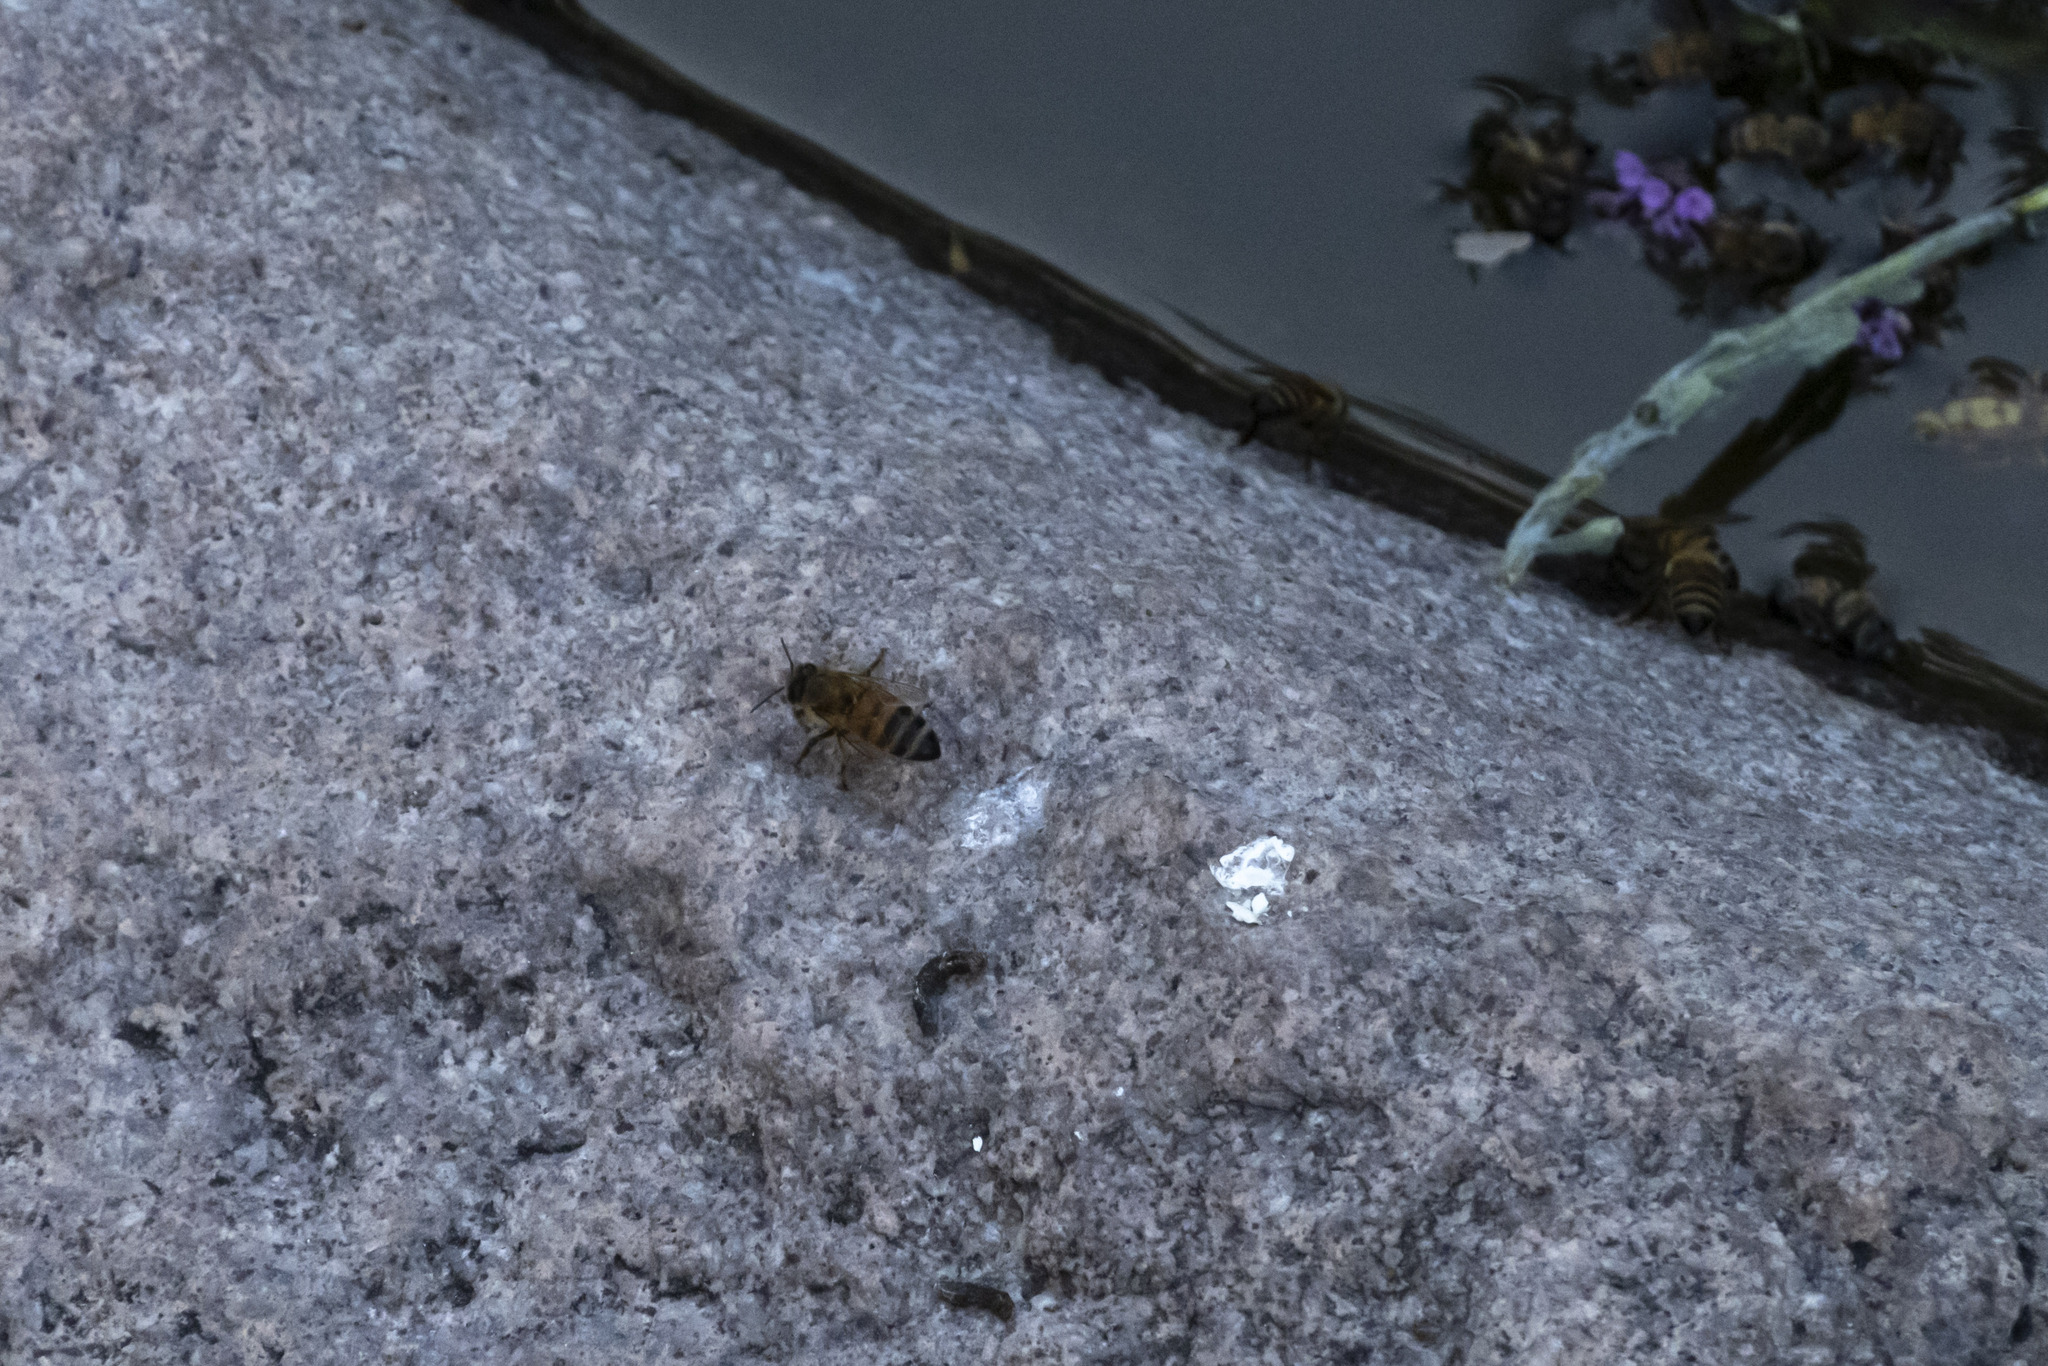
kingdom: Animalia
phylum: Arthropoda
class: Insecta
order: Hymenoptera
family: Apidae
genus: Apis
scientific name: Apis mellifera
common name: Honey bee
